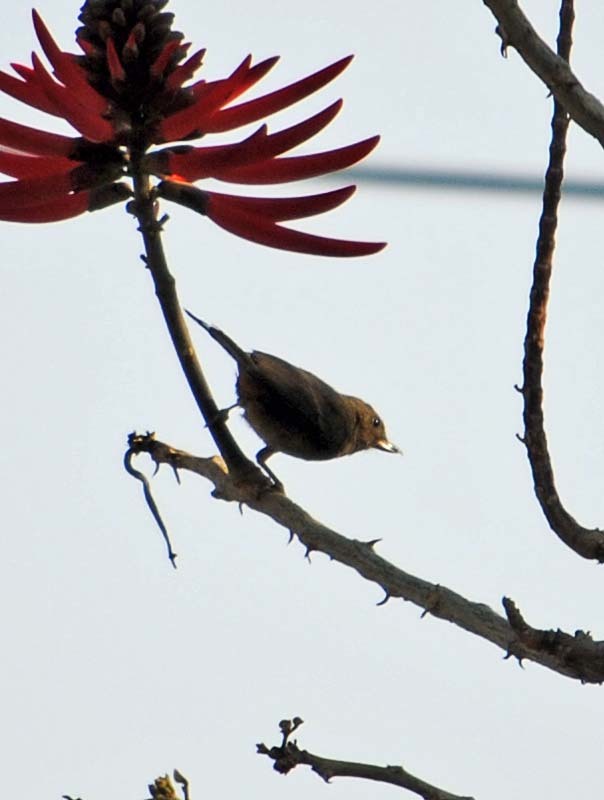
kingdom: Animalia
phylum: Chordata
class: Aves
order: Passeriformes
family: Thraupidae
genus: Diglossa
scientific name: Diglossa baritula
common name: Cinnamon-bellied flowerpiercer
